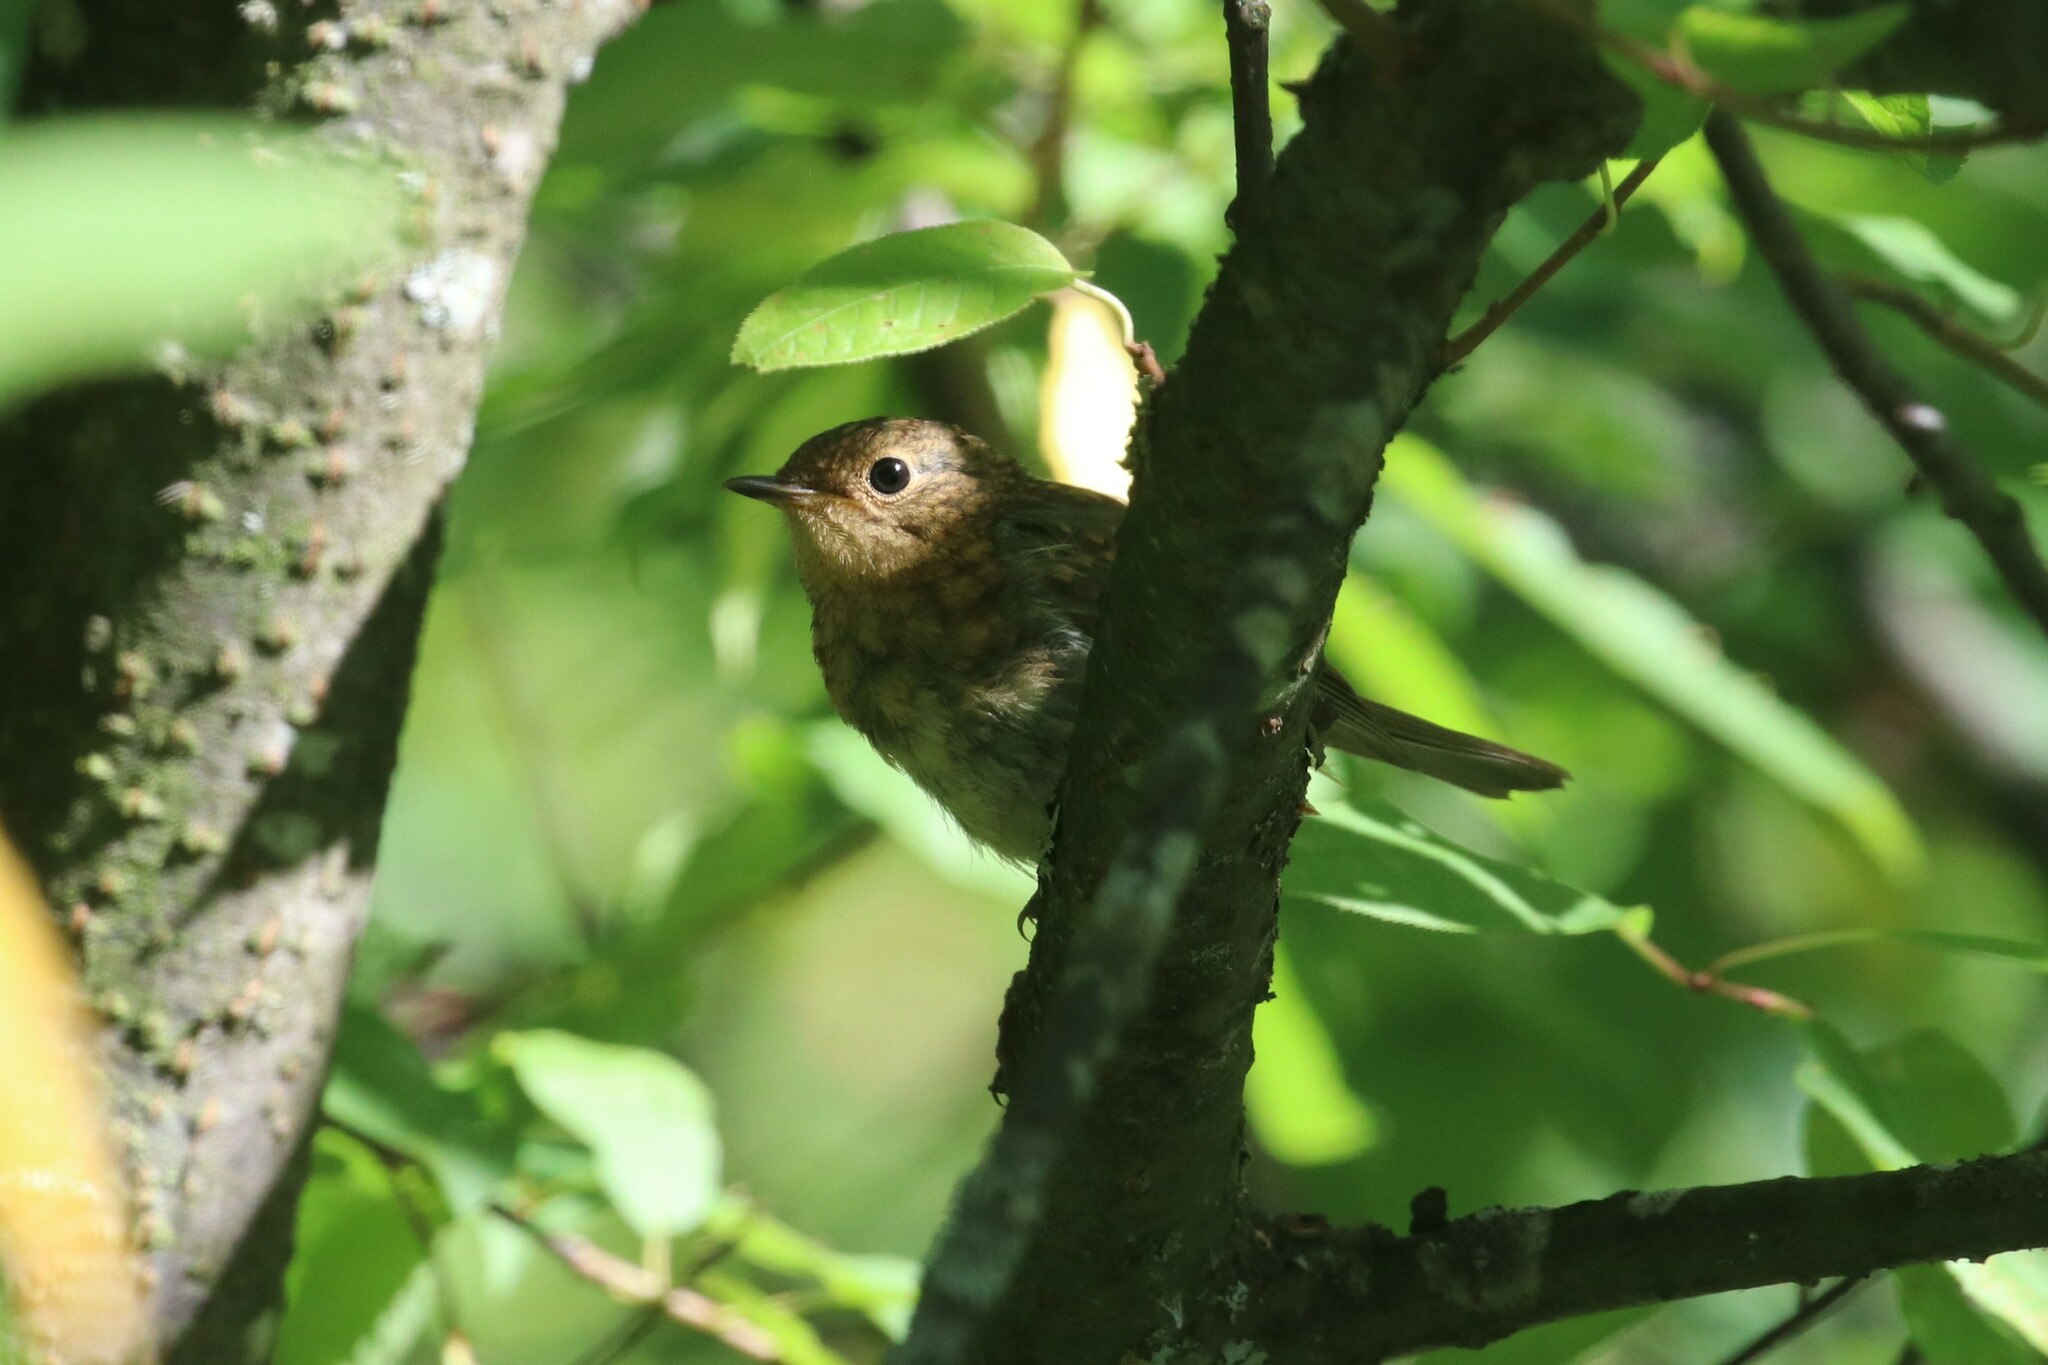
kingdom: Animalia
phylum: Chordata
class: Aves
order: Passeriformes
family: Muscicapidae
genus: Erithacus
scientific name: Erithacus rubecula
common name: European robin
